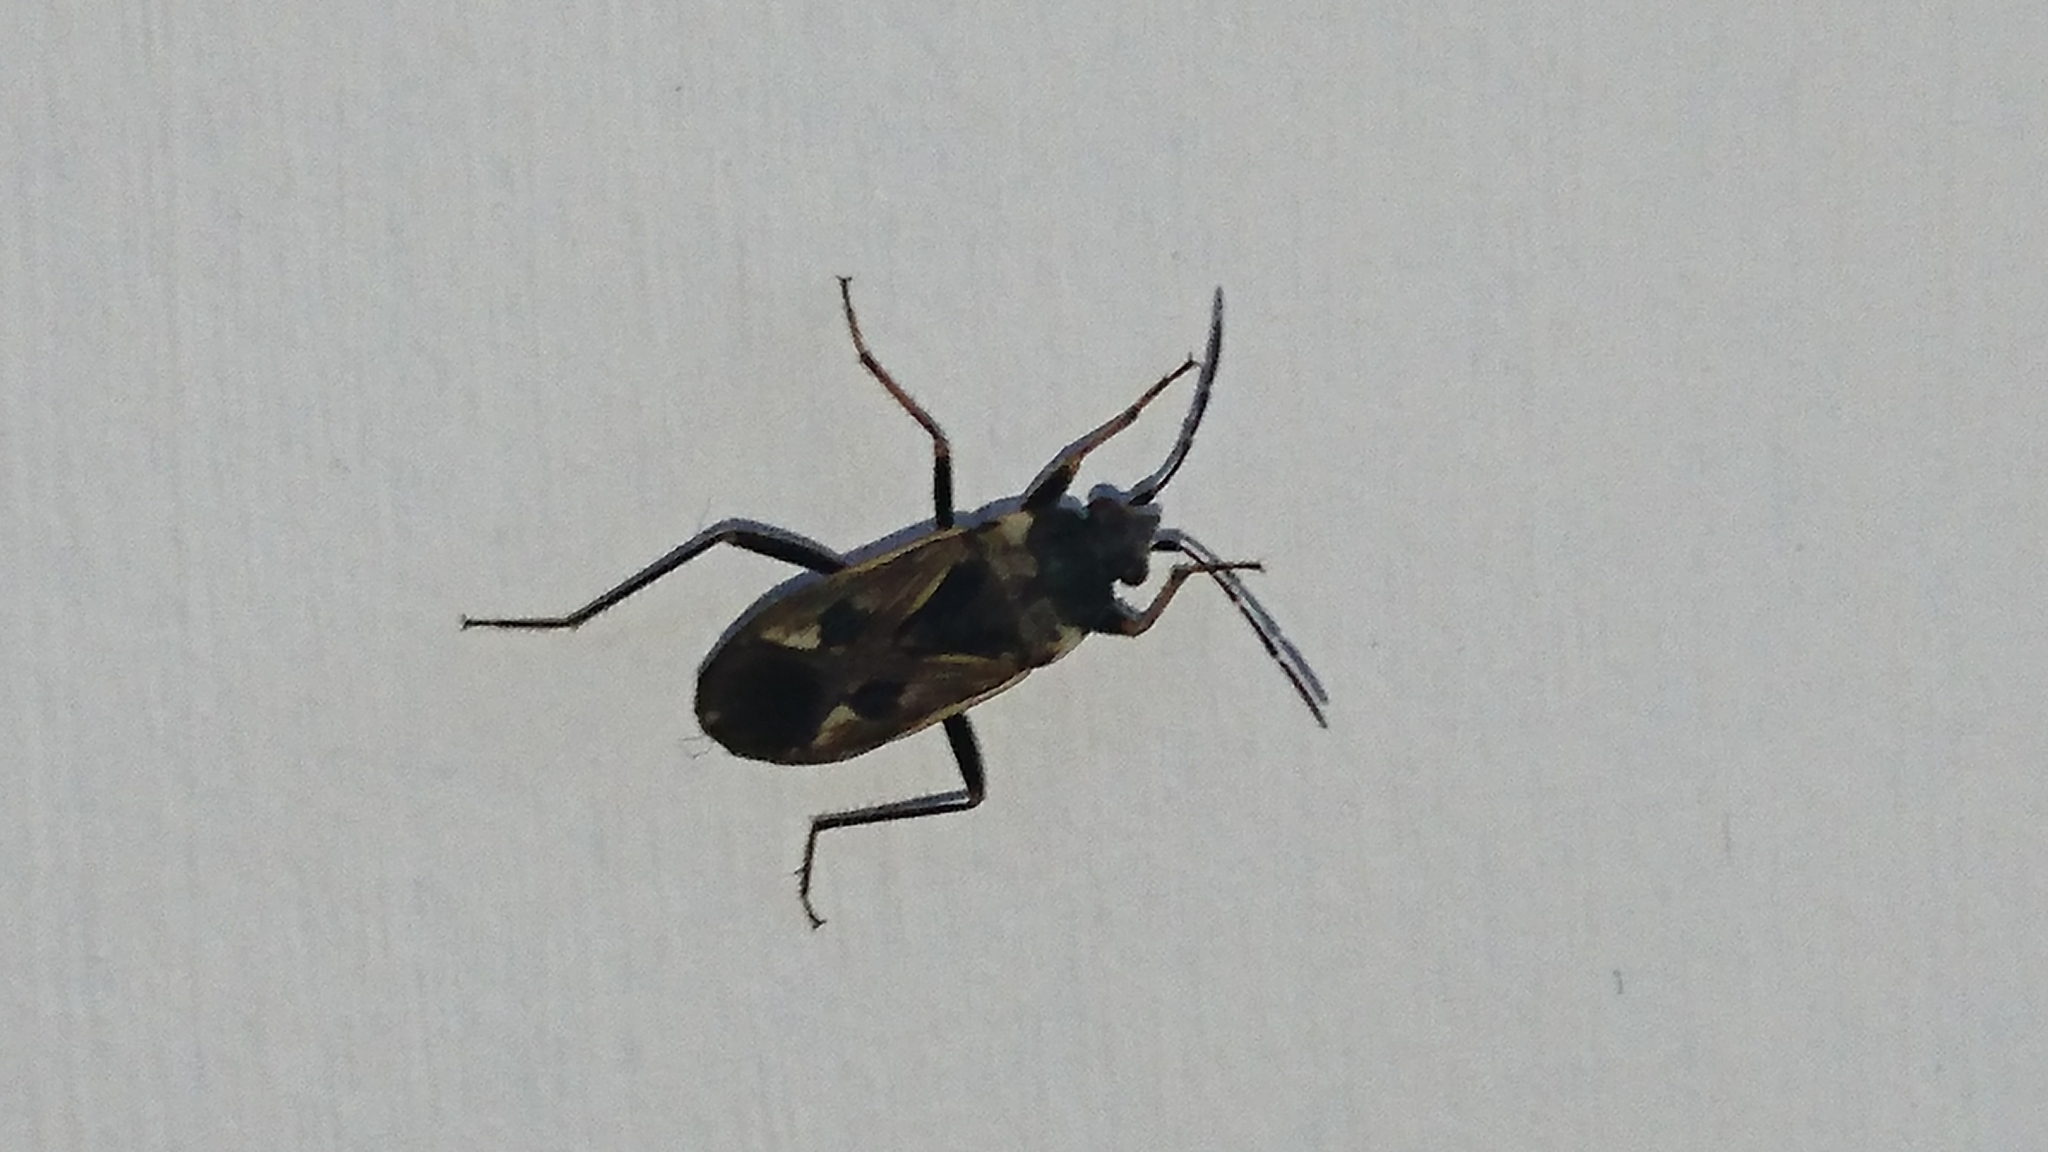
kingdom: Animalia
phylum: Arthropoda
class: Insecta
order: Hemiptera
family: Rhyparochromidae
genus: Rhyparochromus
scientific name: Rhyparochromus vulgaris
